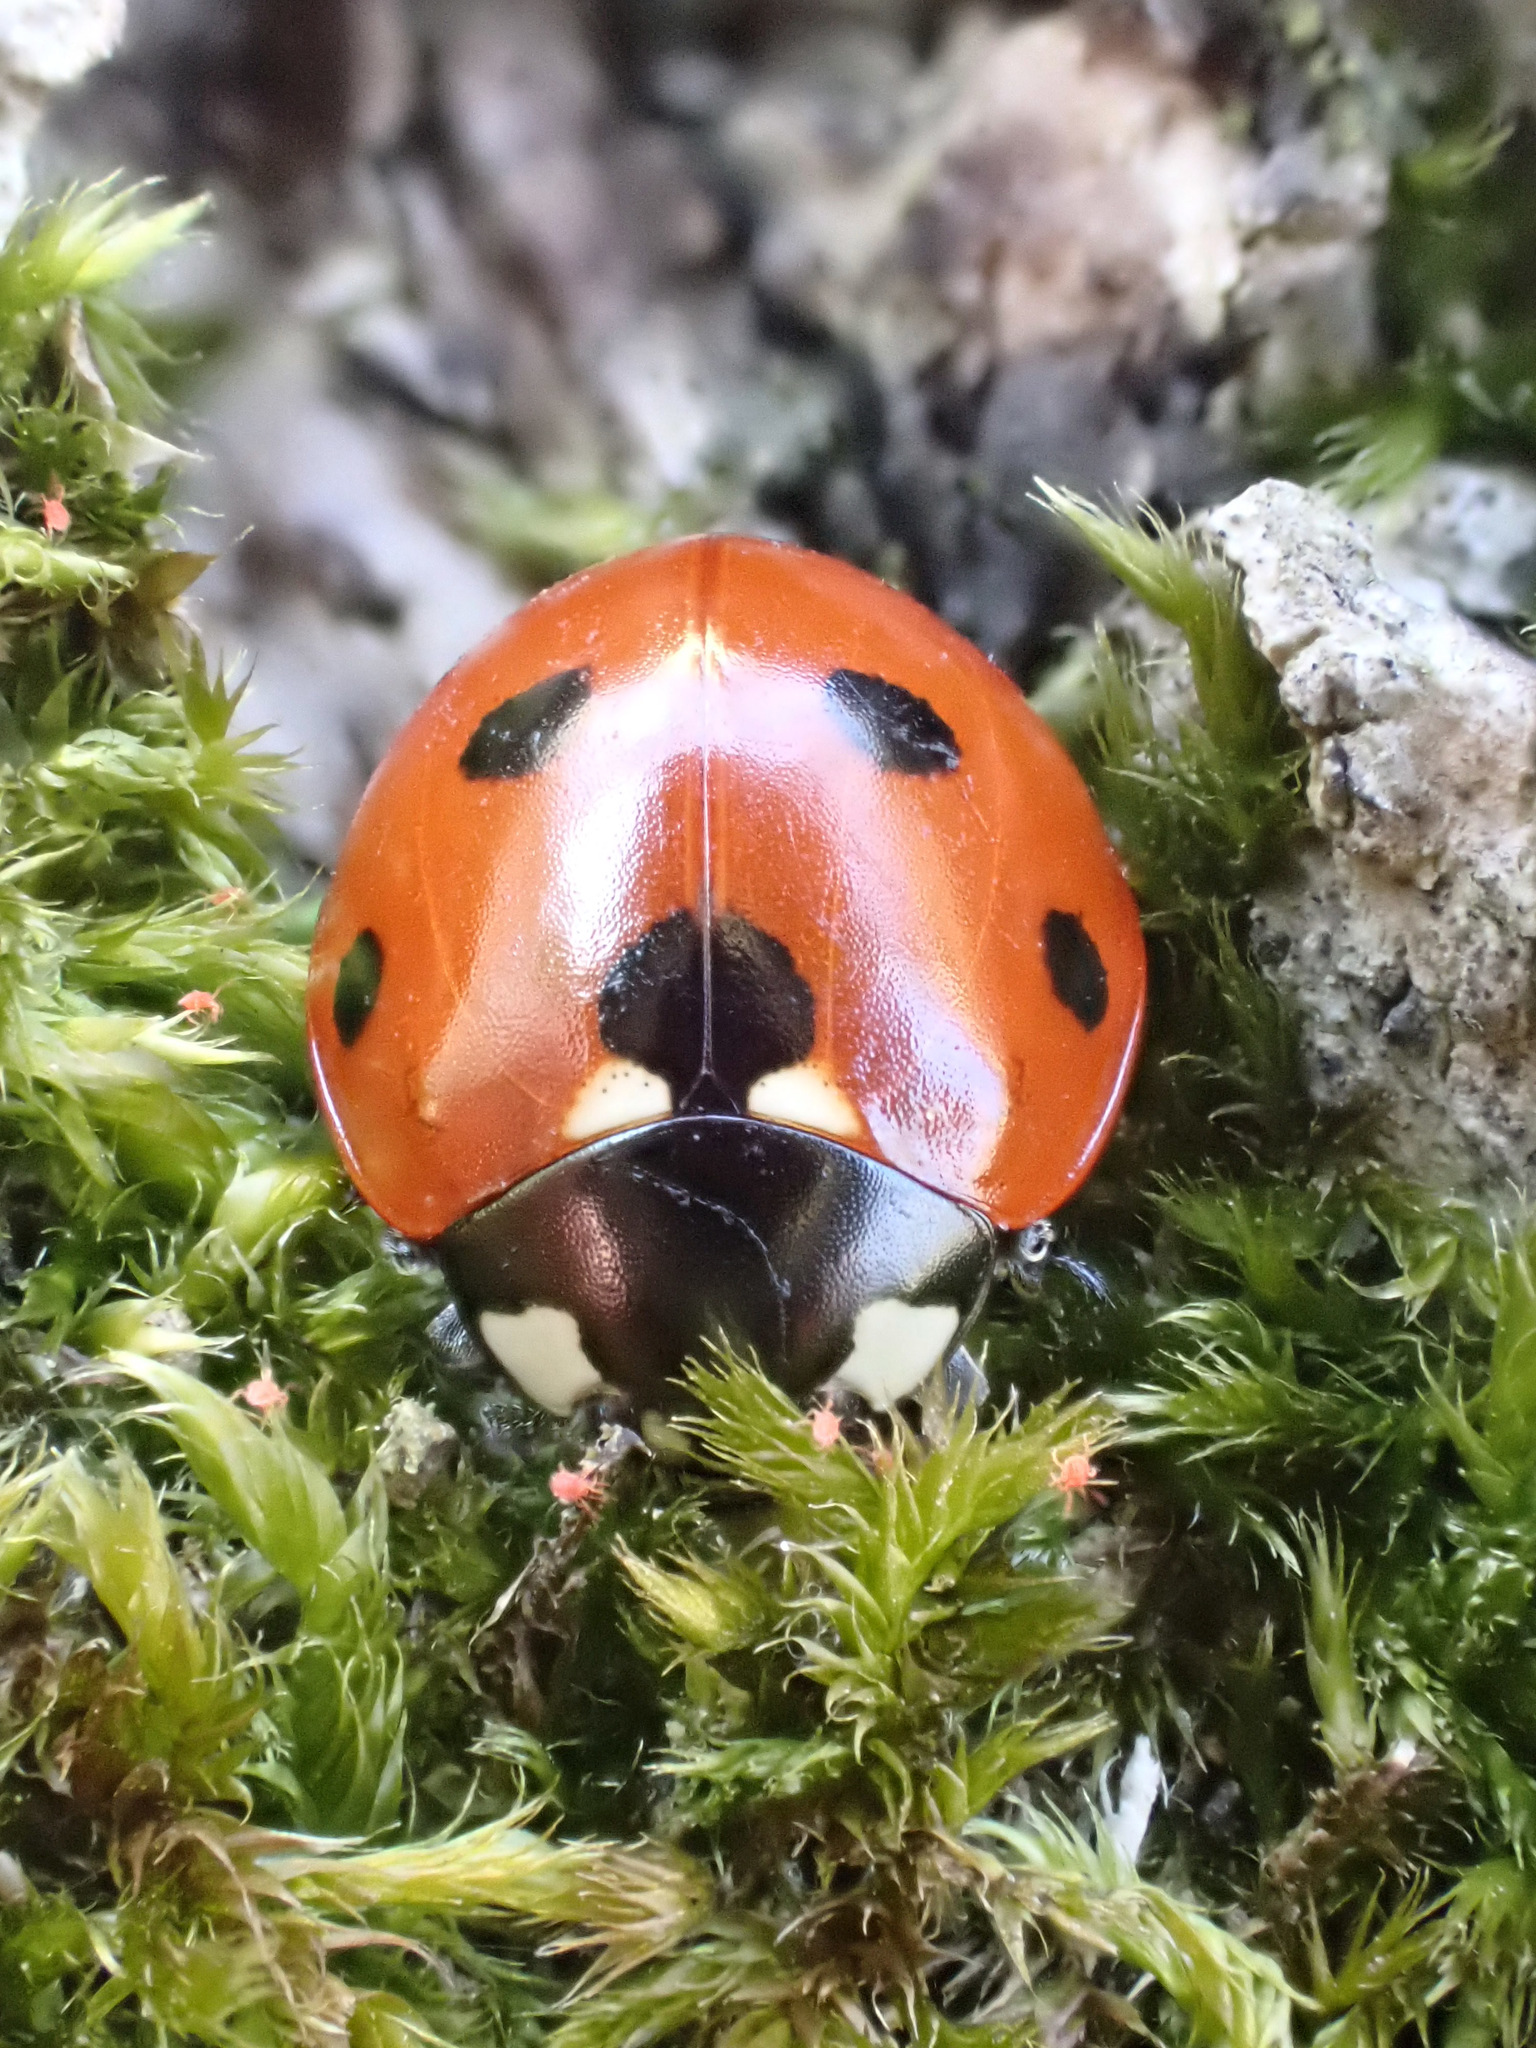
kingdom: Animalia
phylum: Arthropoda
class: Insecta
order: Coleoptera
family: Coccinellidae
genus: Coccinella
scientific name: Coccinella septempunctata
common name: Sevenspotted lady beetle
